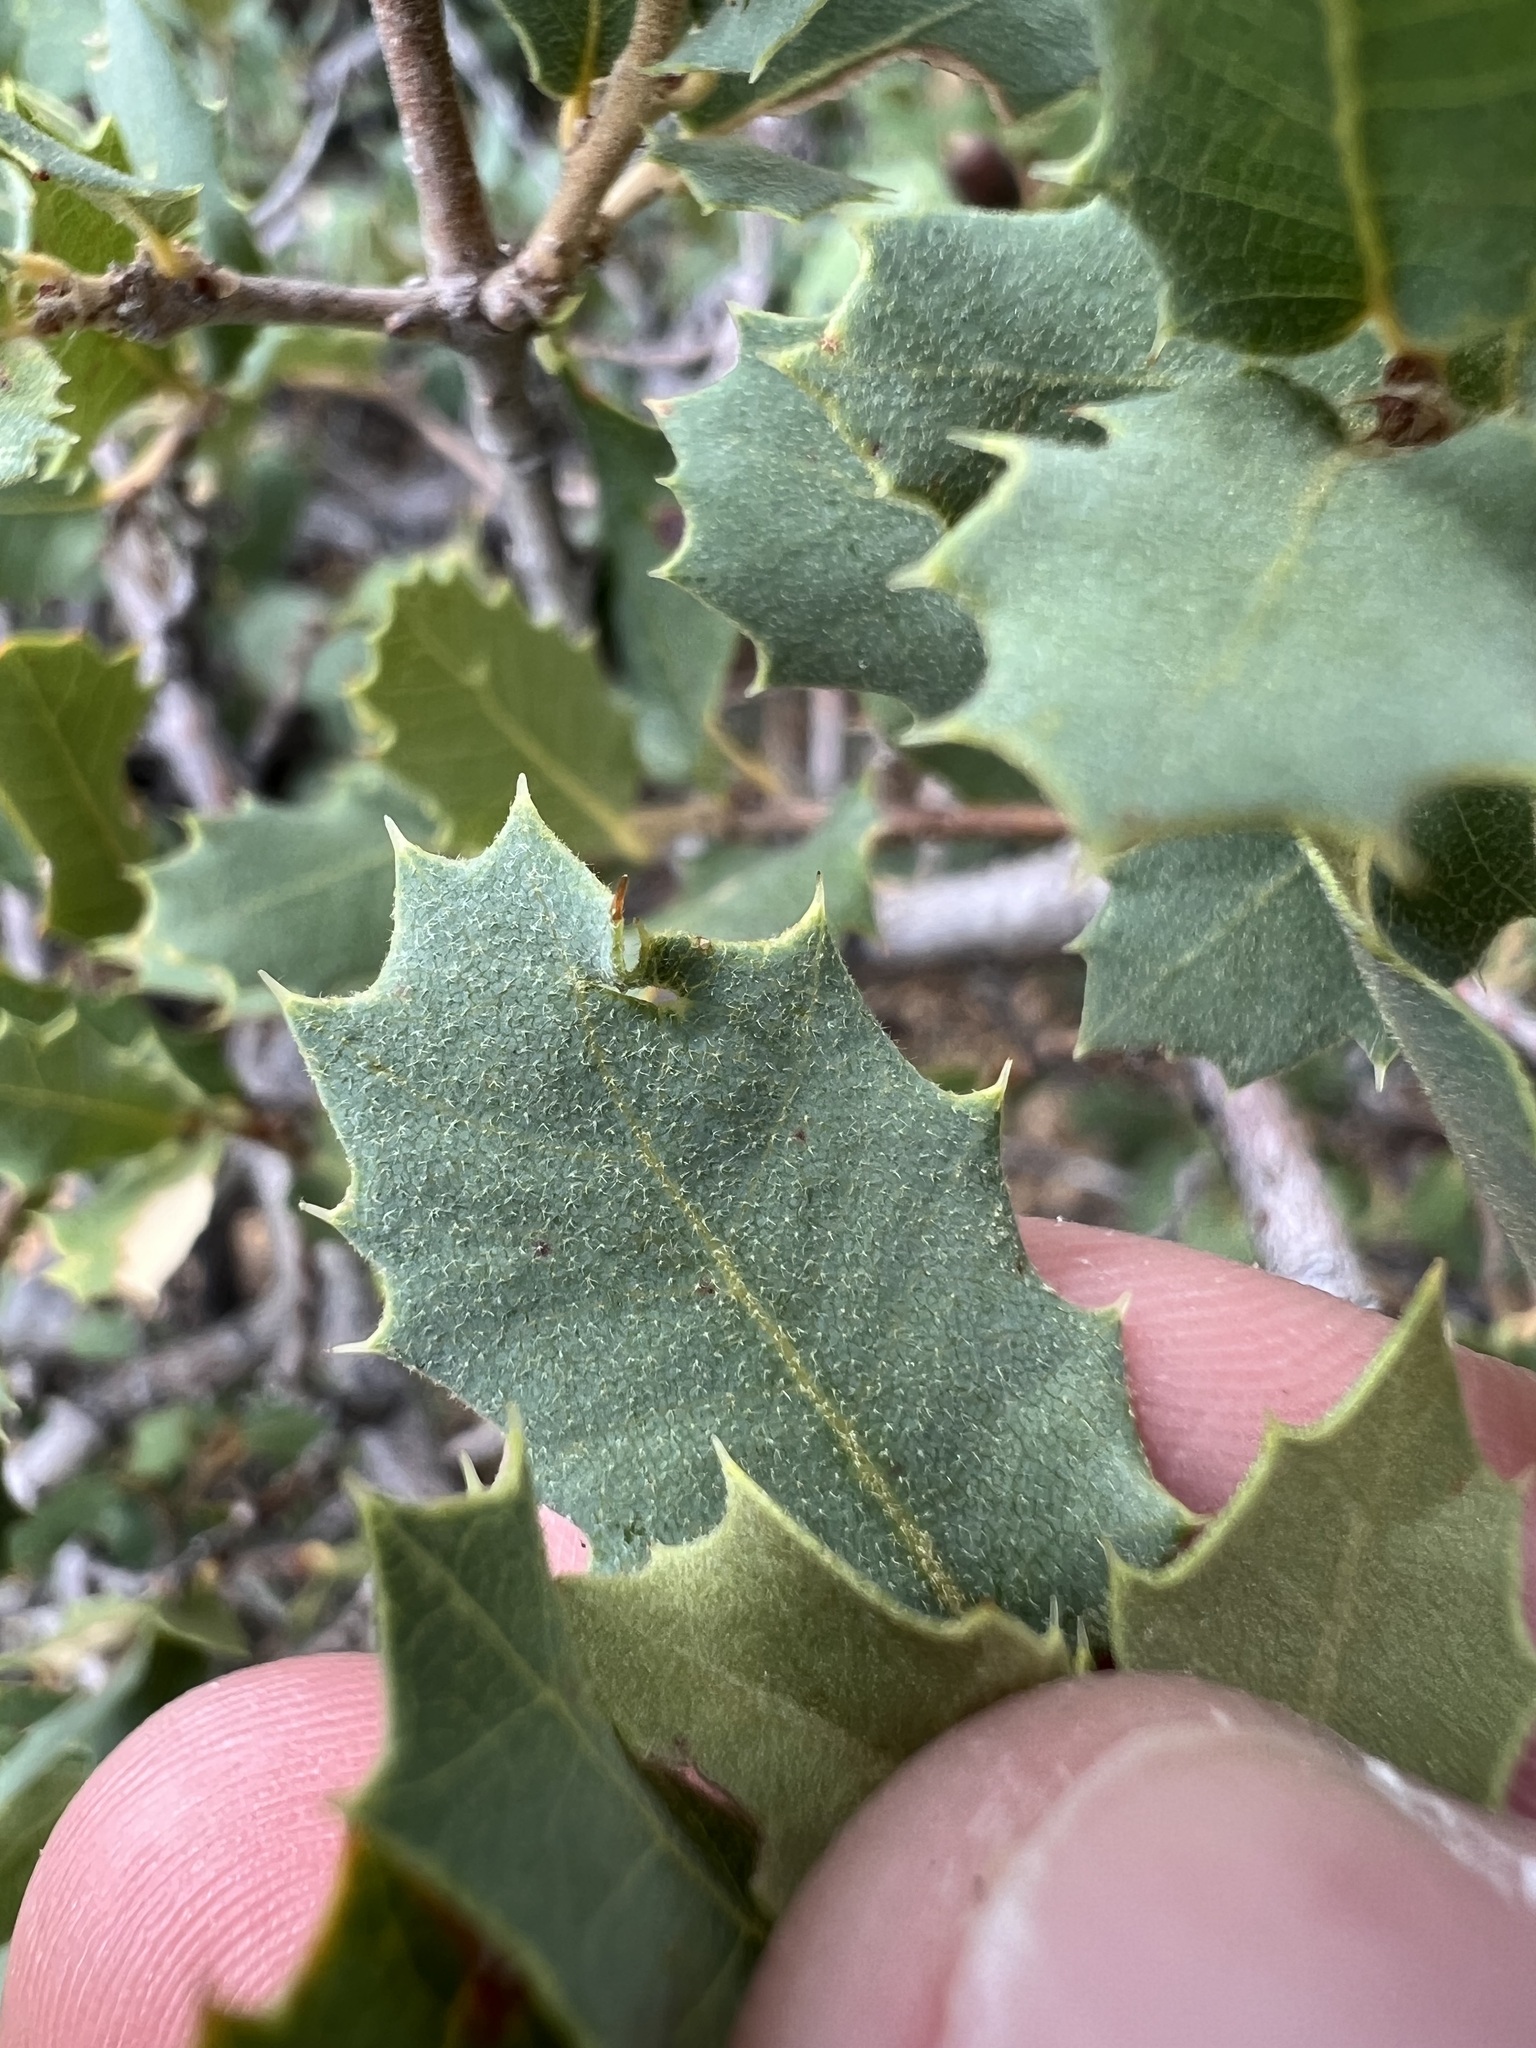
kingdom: Plantae
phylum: Tracheophyta
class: Magnoliopsida
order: Fagales
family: Fagaceae
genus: Quercus
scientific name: Quercus turbinella
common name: Sonoran scrub oak
